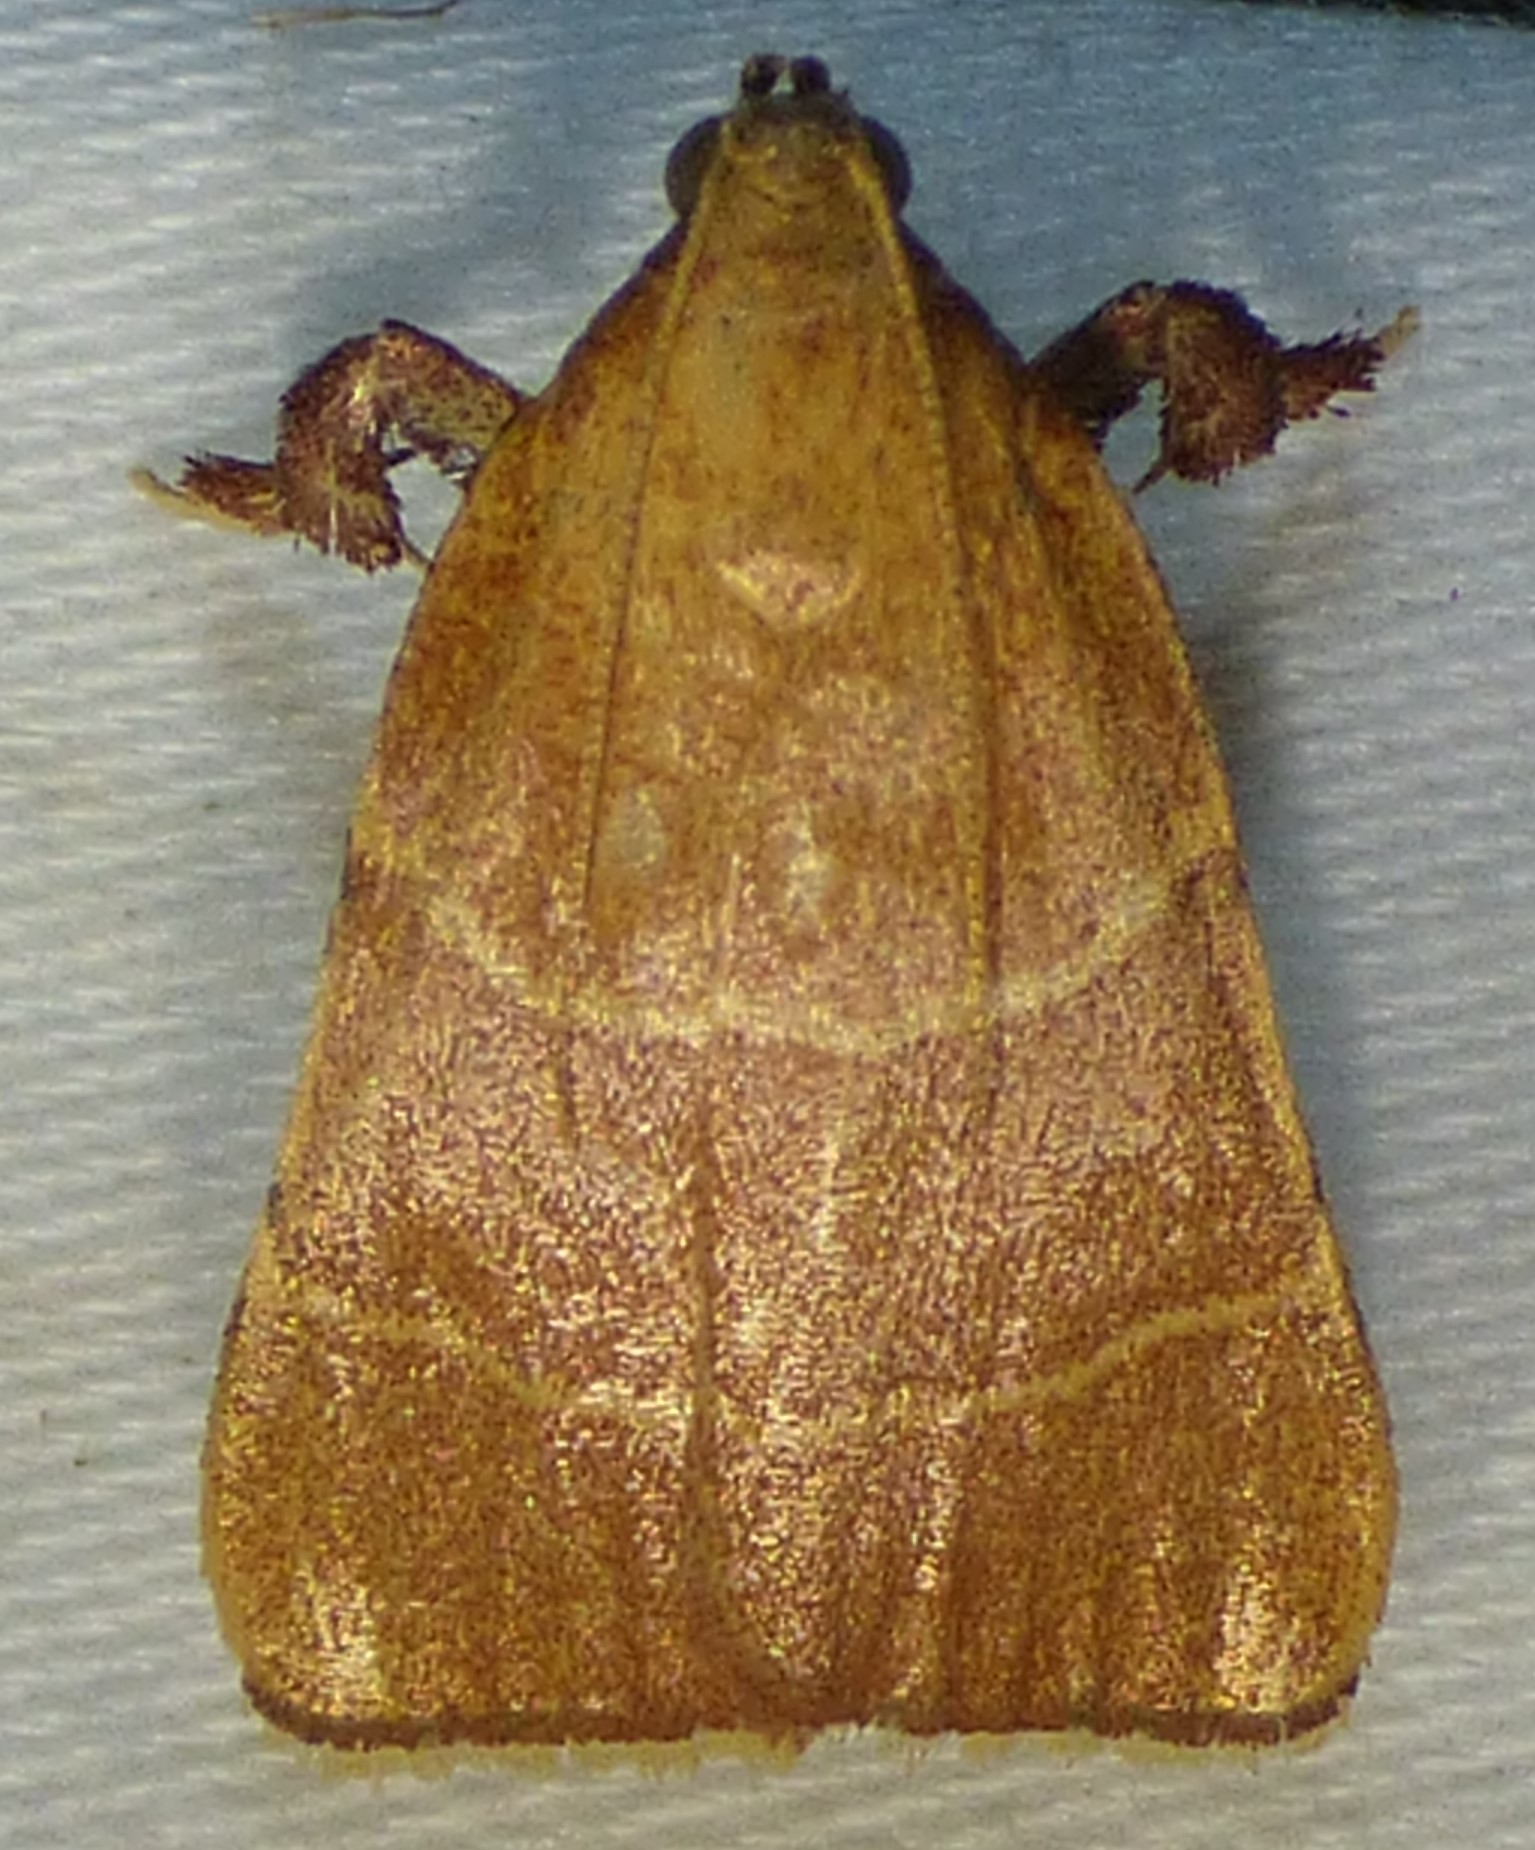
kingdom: Animalia
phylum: Arthropoda
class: Insecta
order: Lepidoptera
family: Pyralidae
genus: Parachma
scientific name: Parachma ochracealis
